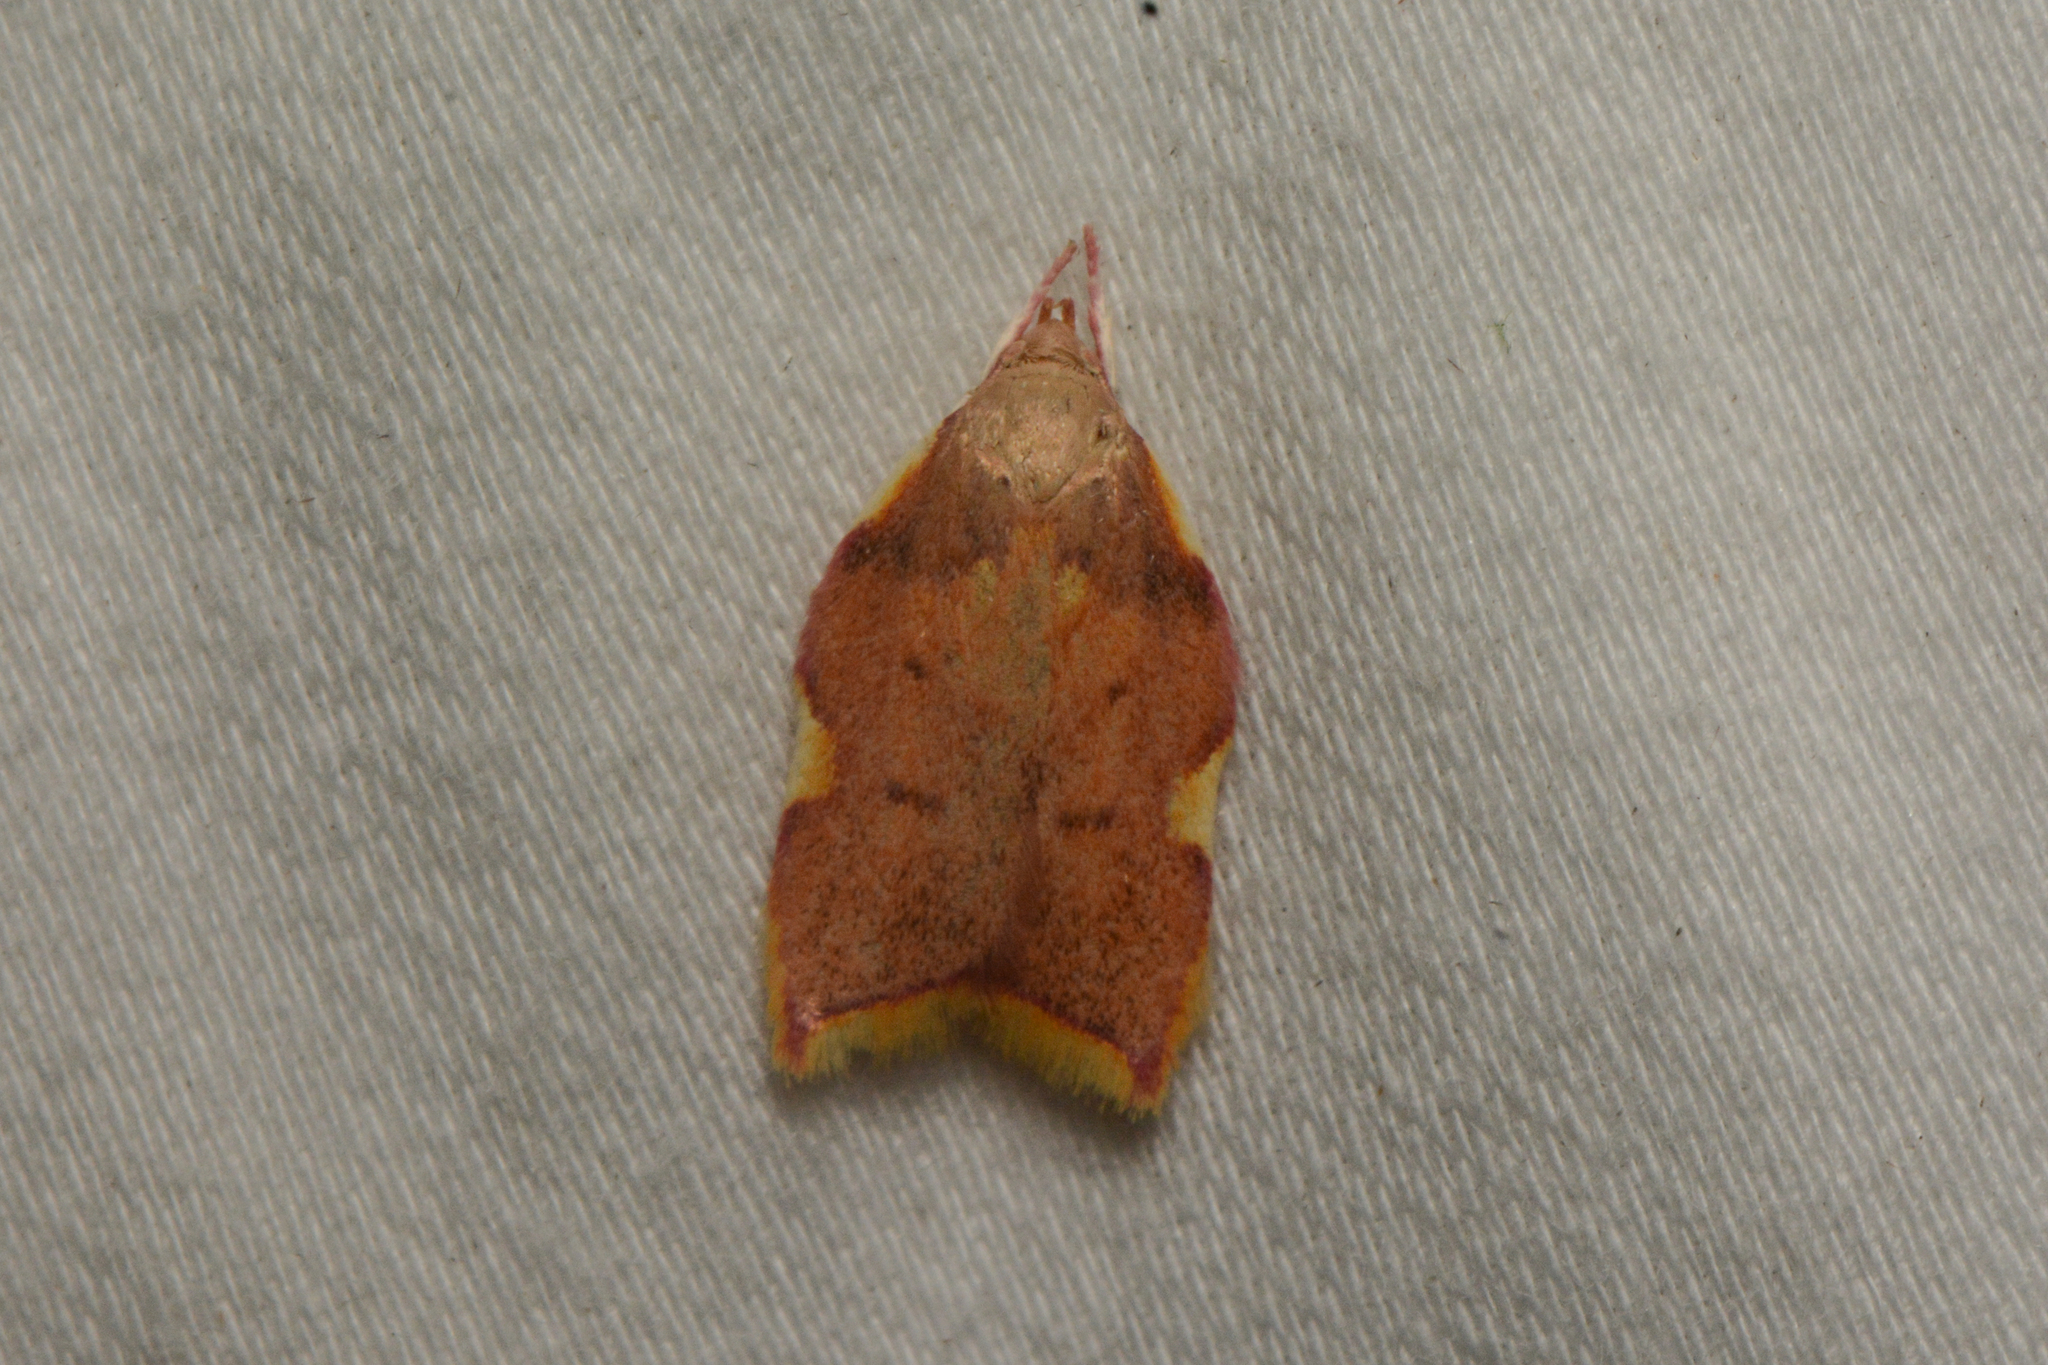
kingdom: Animalia
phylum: Arthropoda
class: Insecta
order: Lepidoptera
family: Peleopodidae
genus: Carcina
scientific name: Carcina quercana
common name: Moth
